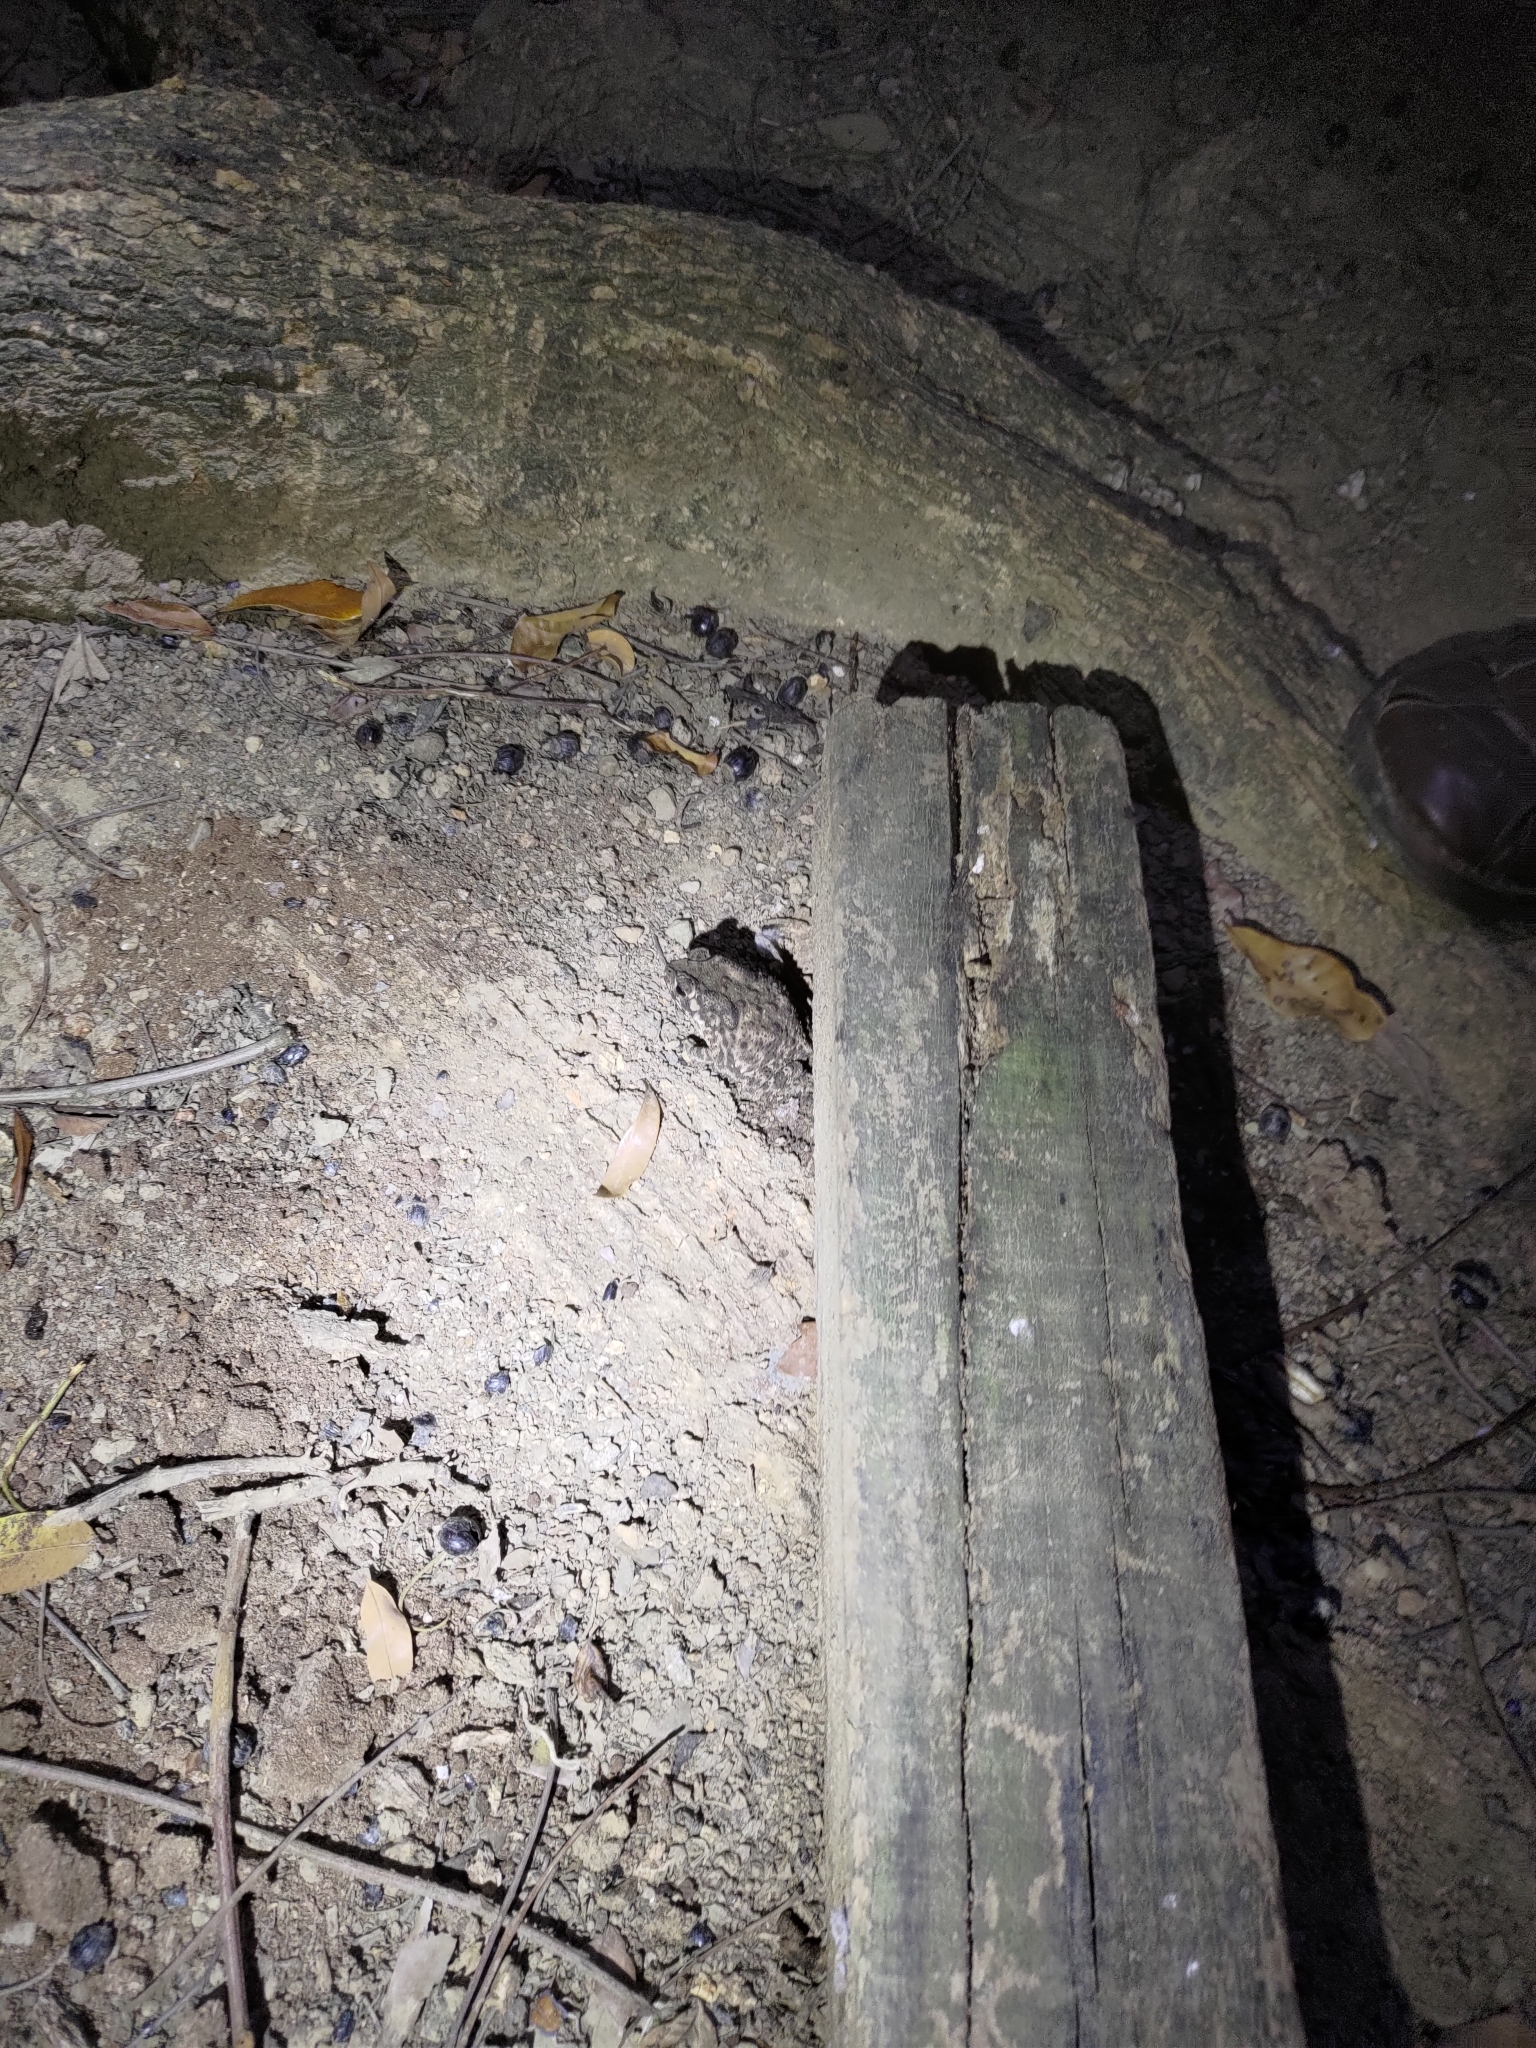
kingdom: Animalia
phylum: Chordata
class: Amphibia
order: Anura
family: Bufonidae
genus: Duttaphrynus
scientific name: Duttaphrynus melanostictus
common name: Common sunda toad
